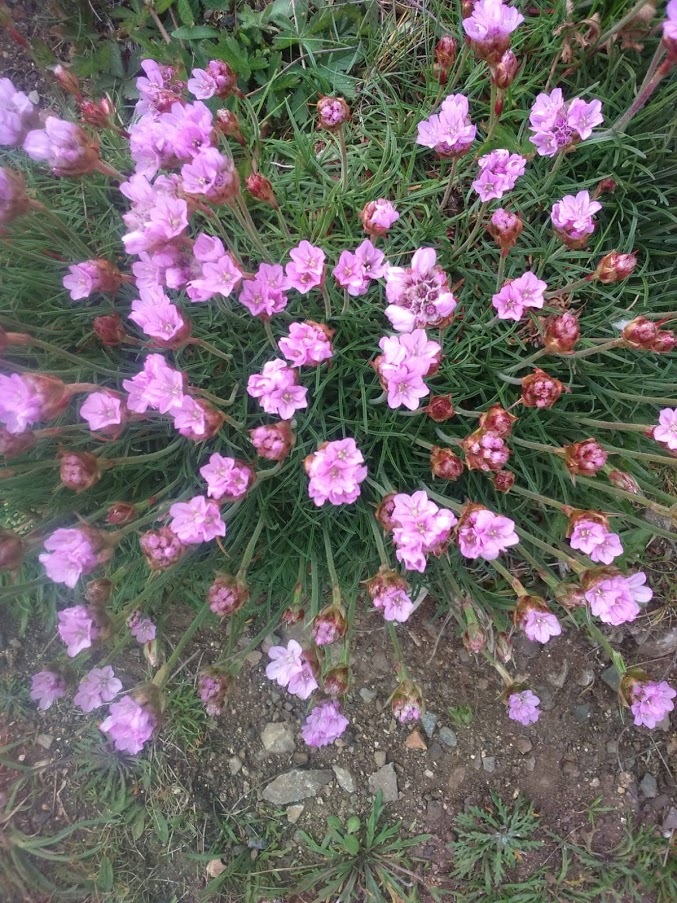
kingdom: Plantae
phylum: Tracheophyta
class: Magnoliopsida
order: Caryophyllales
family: Plumbaginaceae
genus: Armeria
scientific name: Armeria maritima
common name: Thrift
